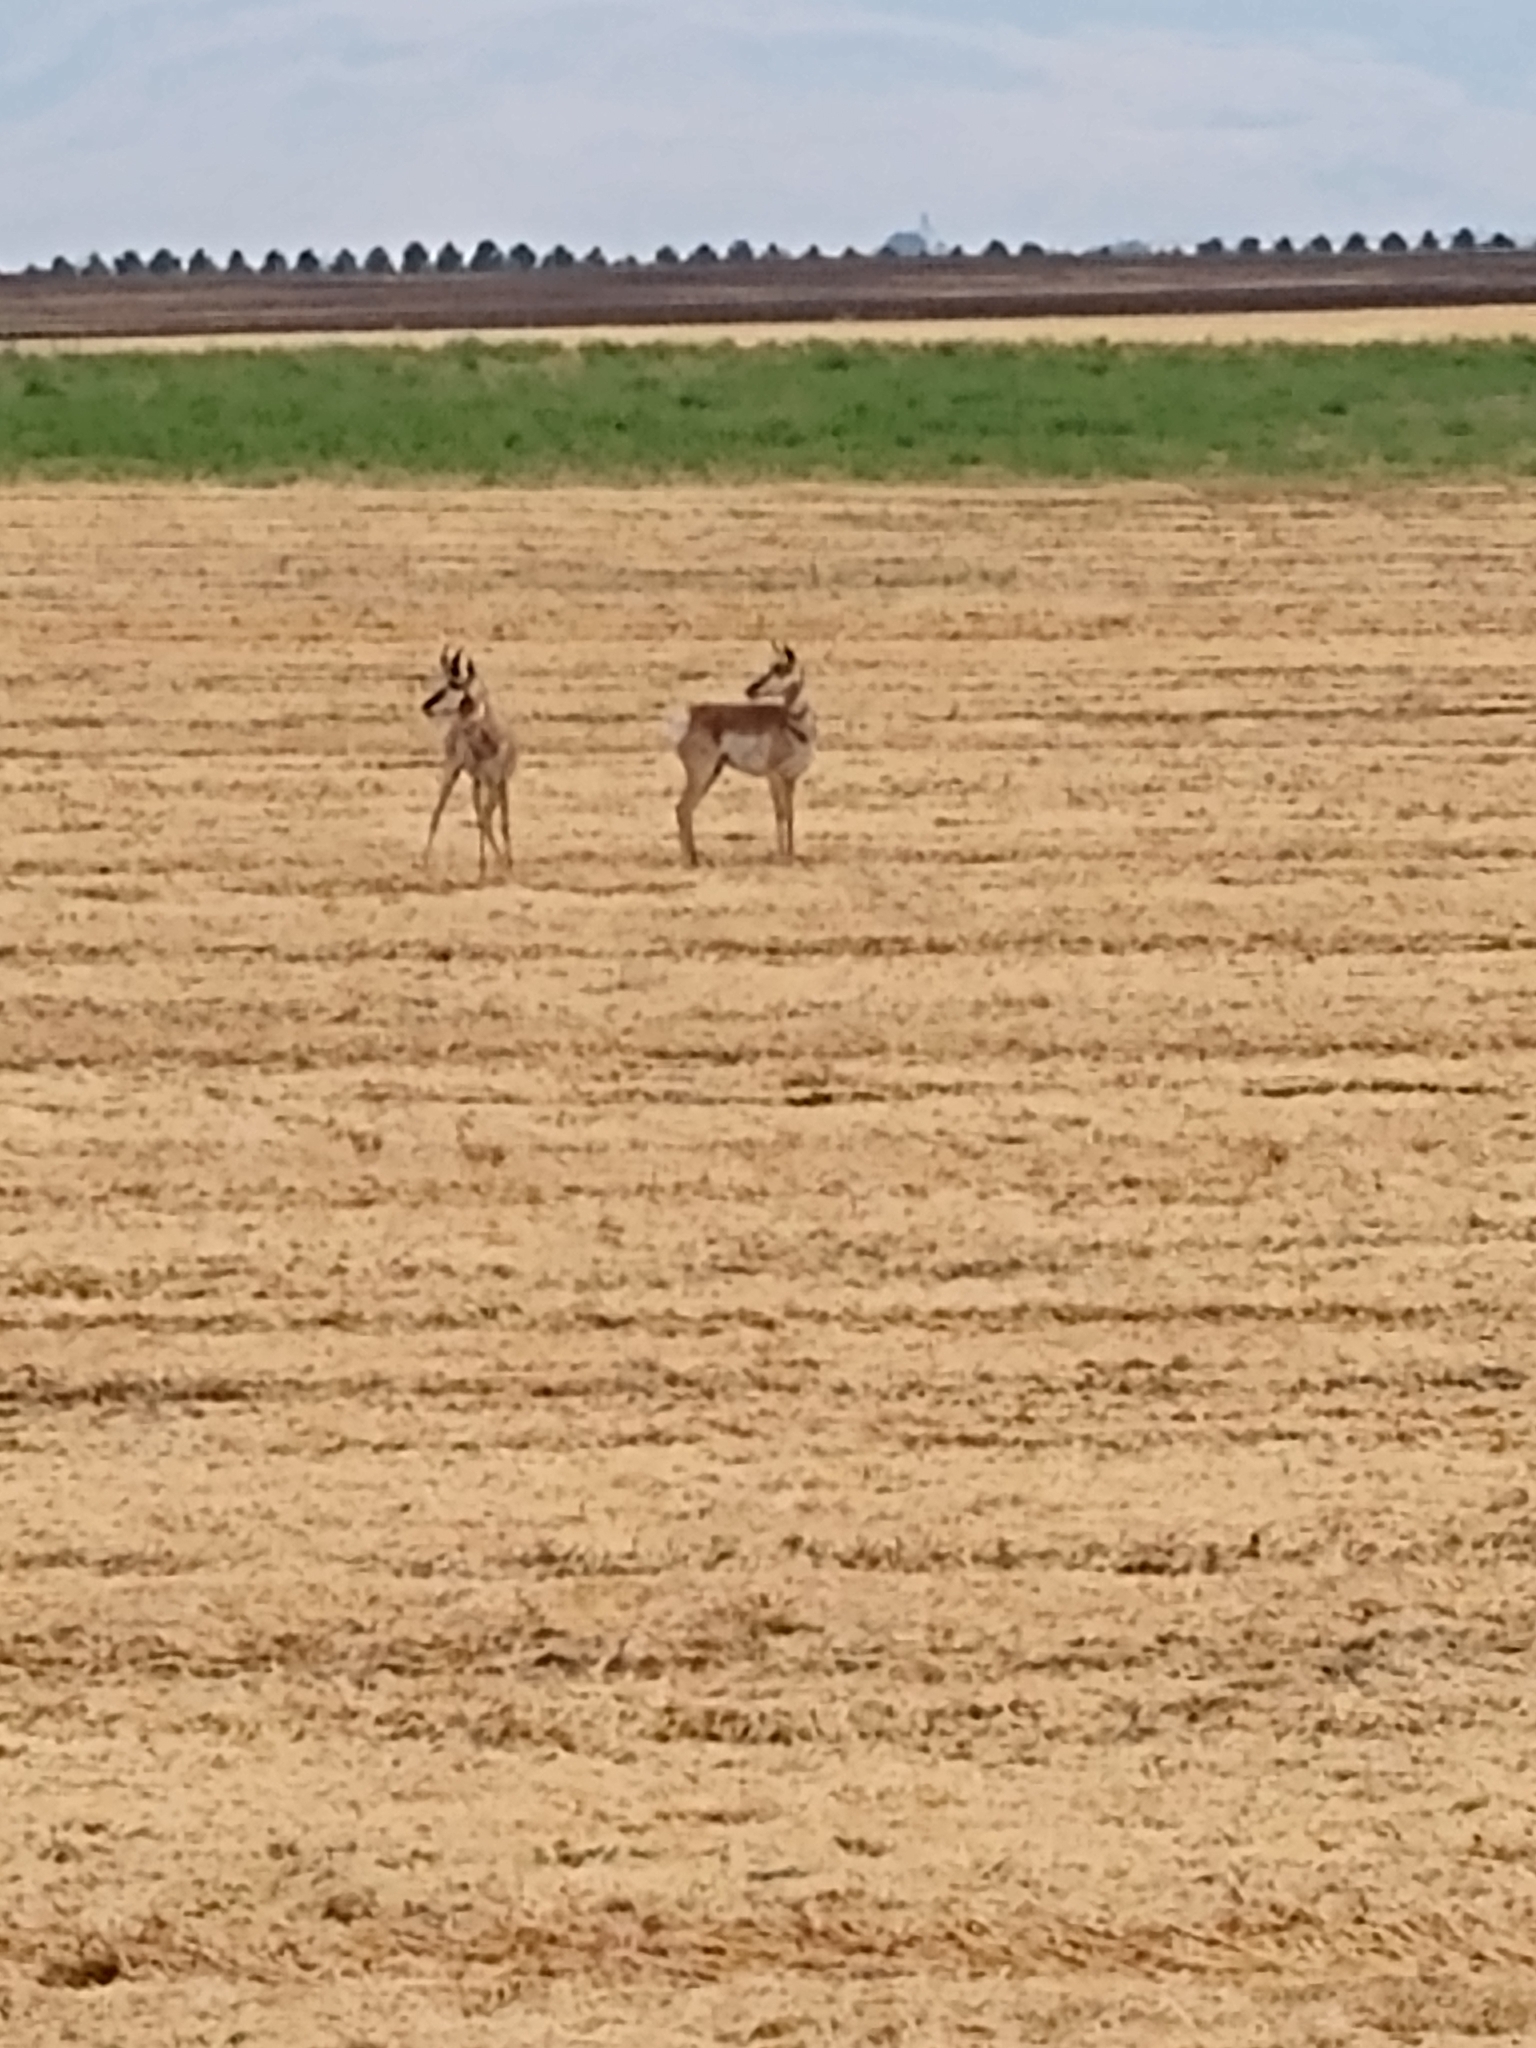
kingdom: Animalia
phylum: Chordata
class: Mammalia
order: Artiodactyla
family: Antilocapridae
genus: Antilocapra
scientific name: Antilocapra americana
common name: Pronghorn
